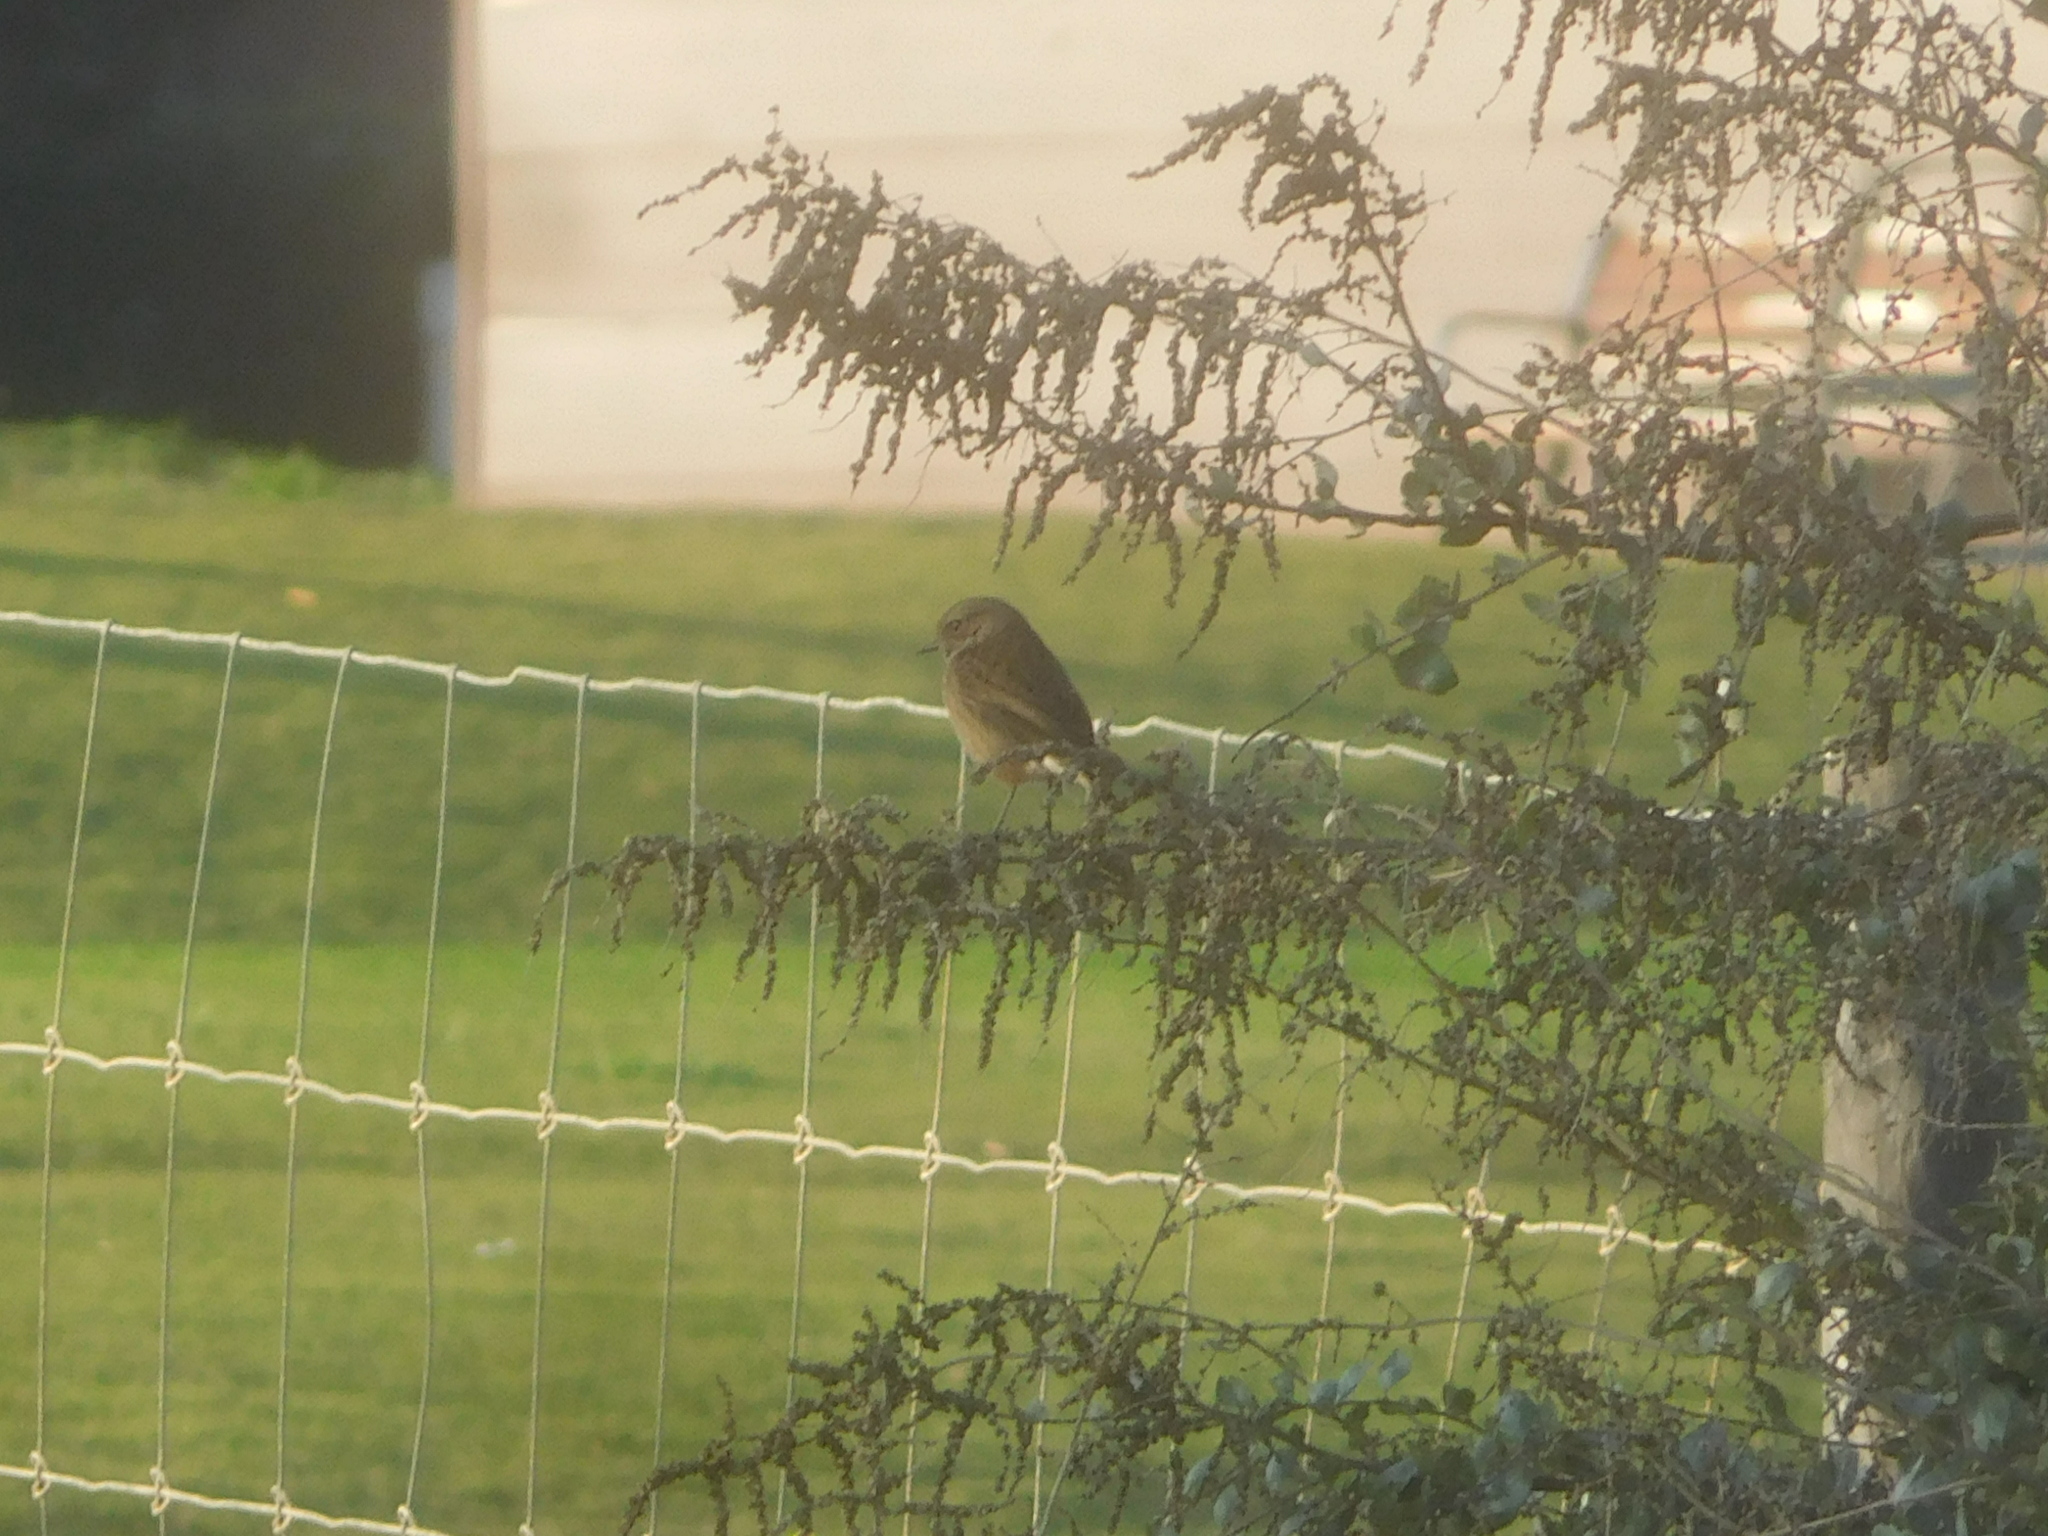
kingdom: Animalia
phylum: Chordata
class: Aves
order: Passeriformes
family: Muscicapidae
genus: Saxicola
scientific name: Saxicola rubicola
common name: European stonechat
